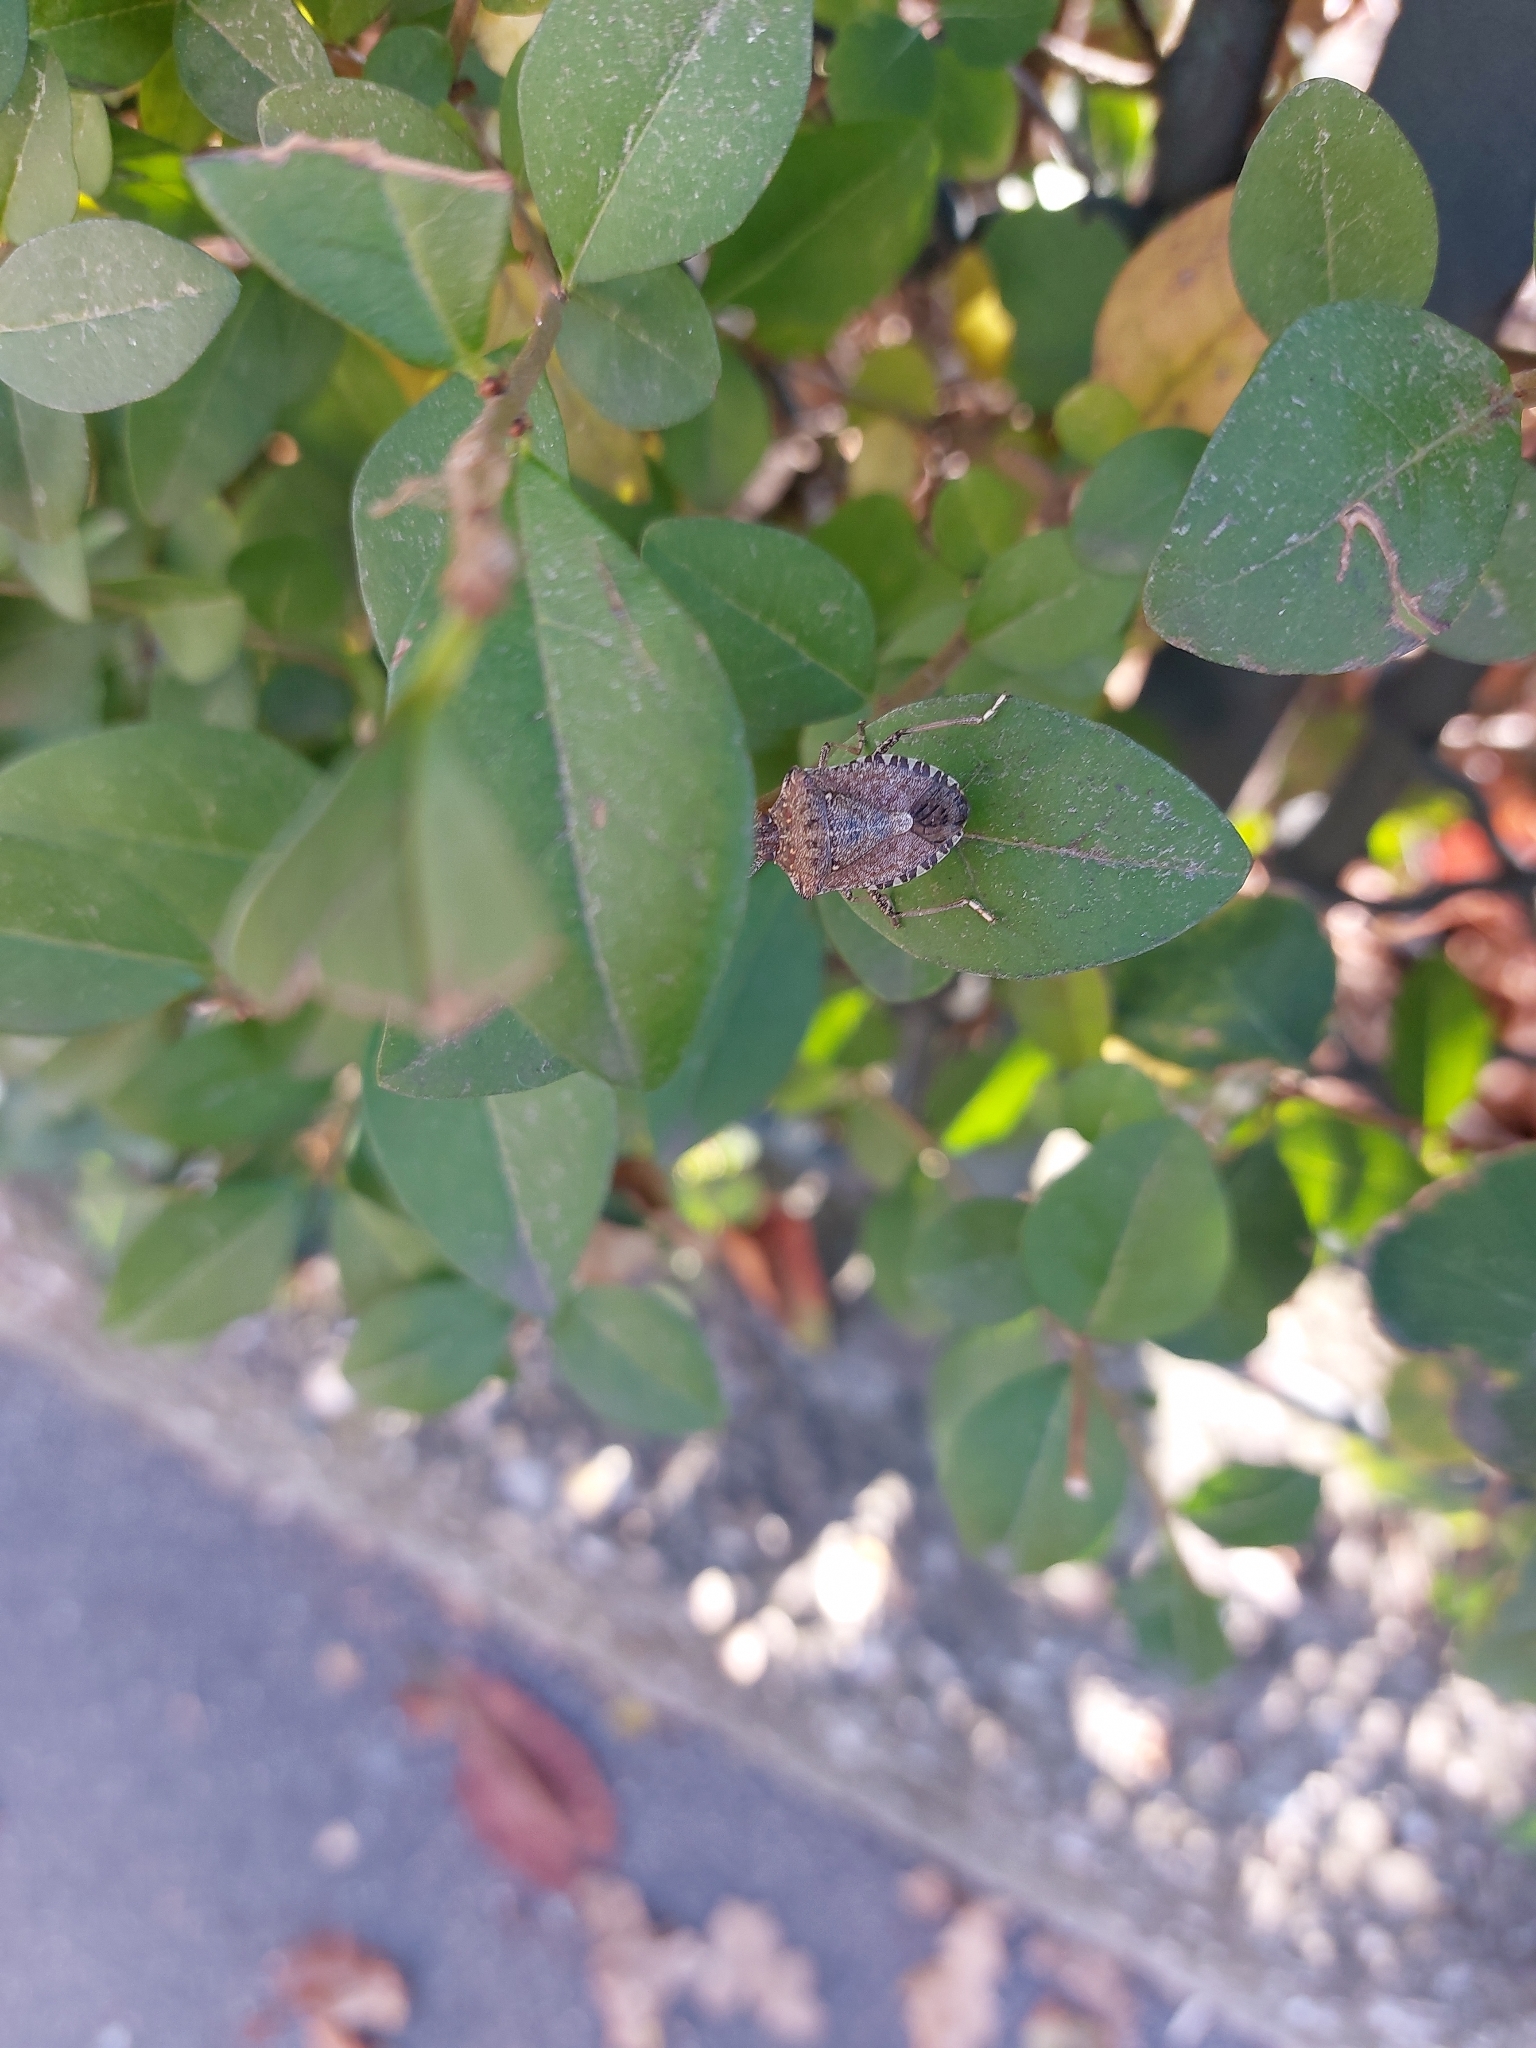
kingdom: Animalia
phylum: Arthropoda
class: Insecta
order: Hemiptera
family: Pentatomidae
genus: Halyomorpha
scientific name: Halyomorpha halys
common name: Brown marmorated stink bug
